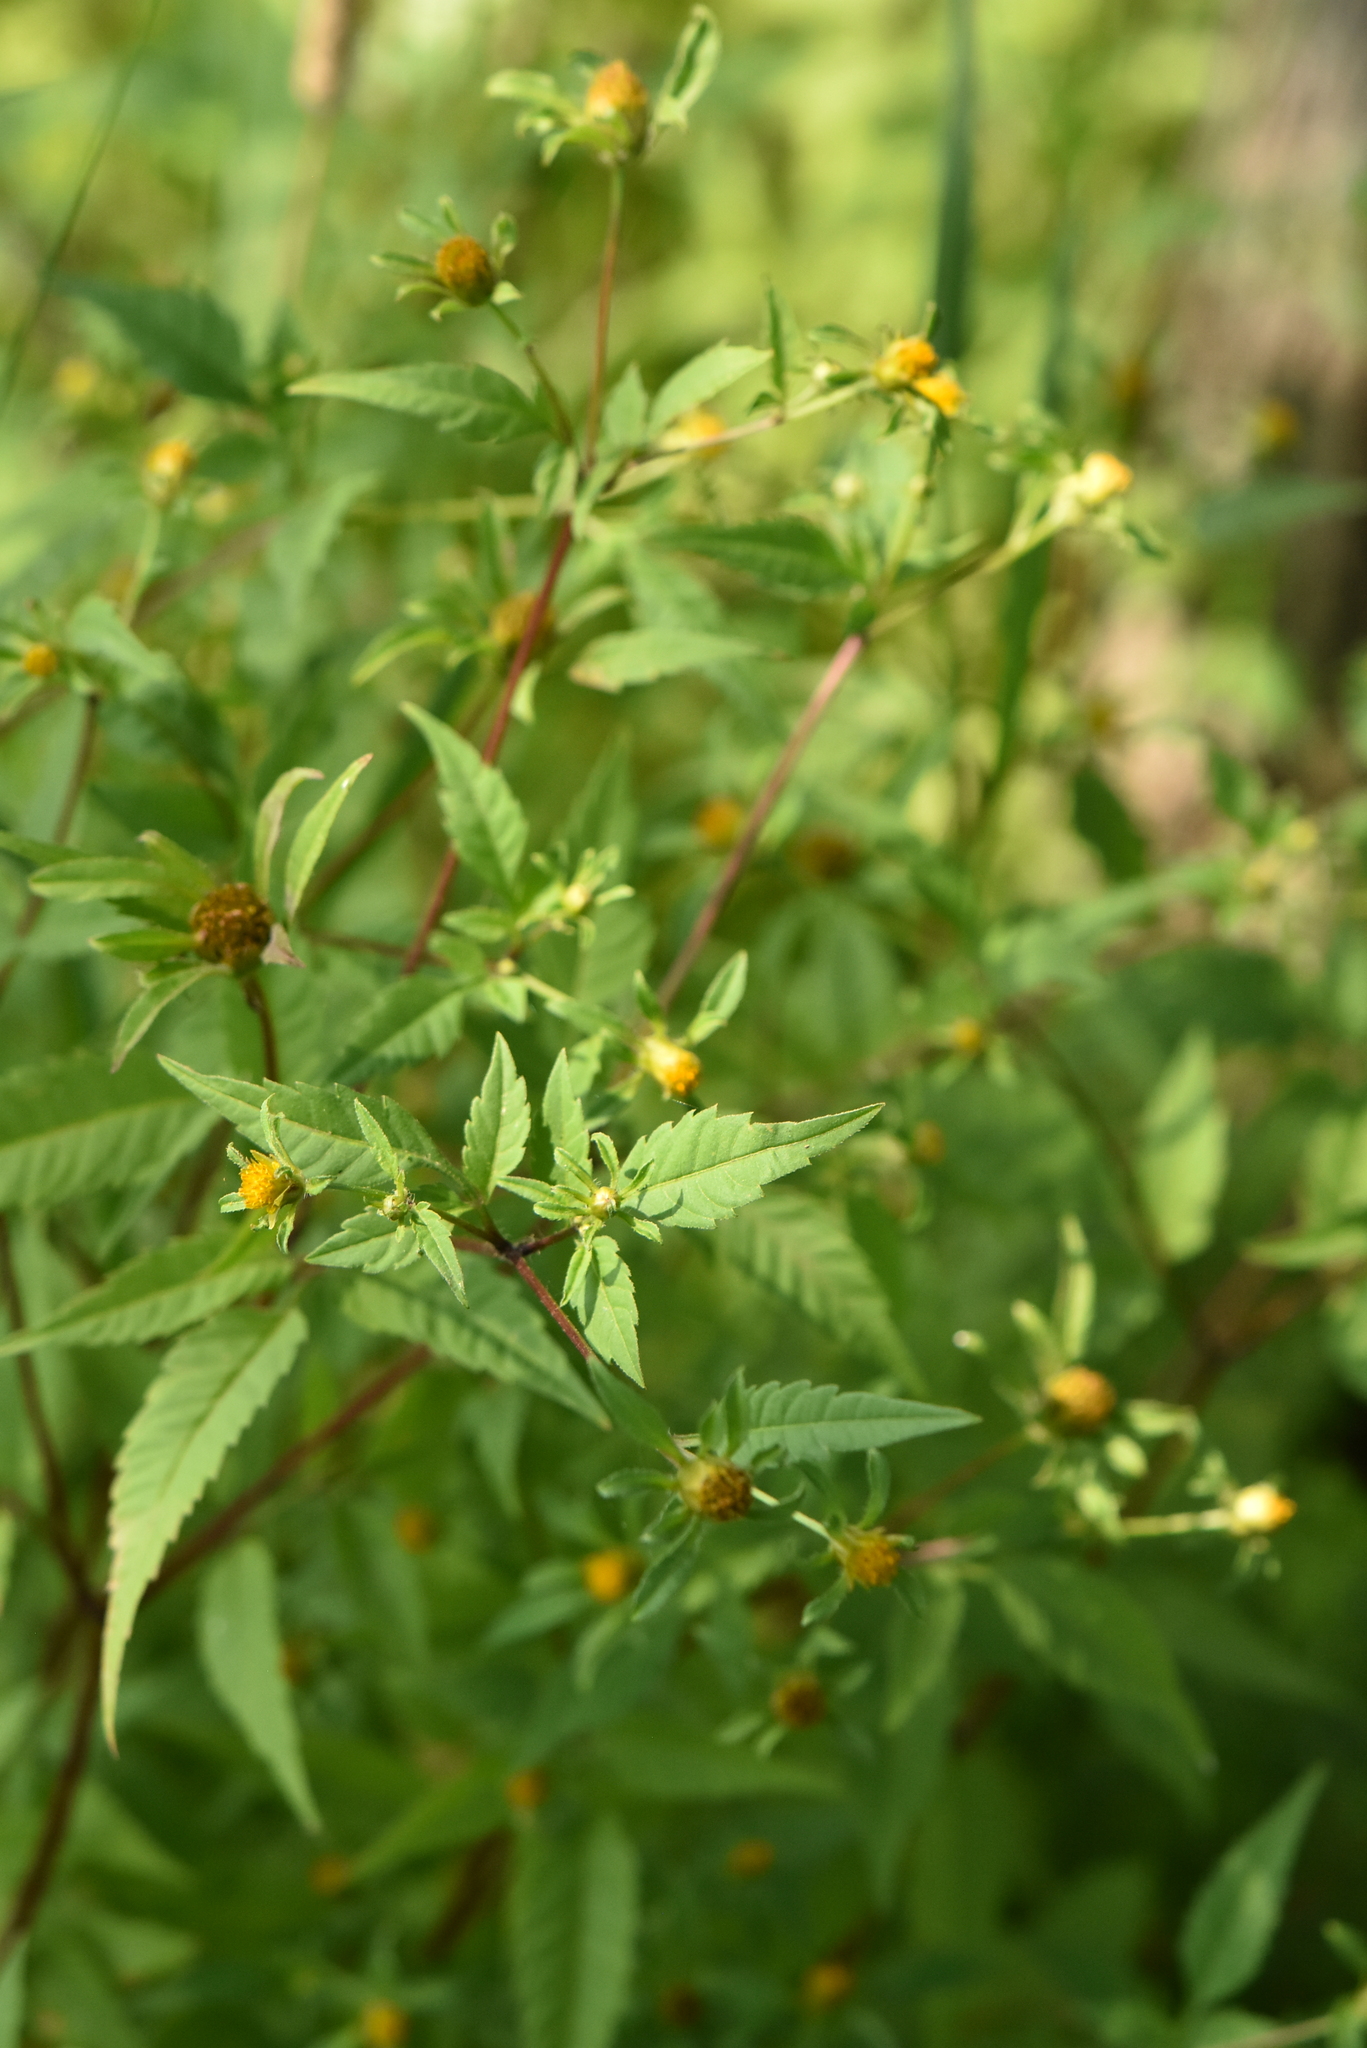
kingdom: Plantae
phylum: Tracheophyta
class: Magnoliopsida
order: Asterales
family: Asteraceae
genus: Bidens
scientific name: Bidens frondosa
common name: Beggarticks
